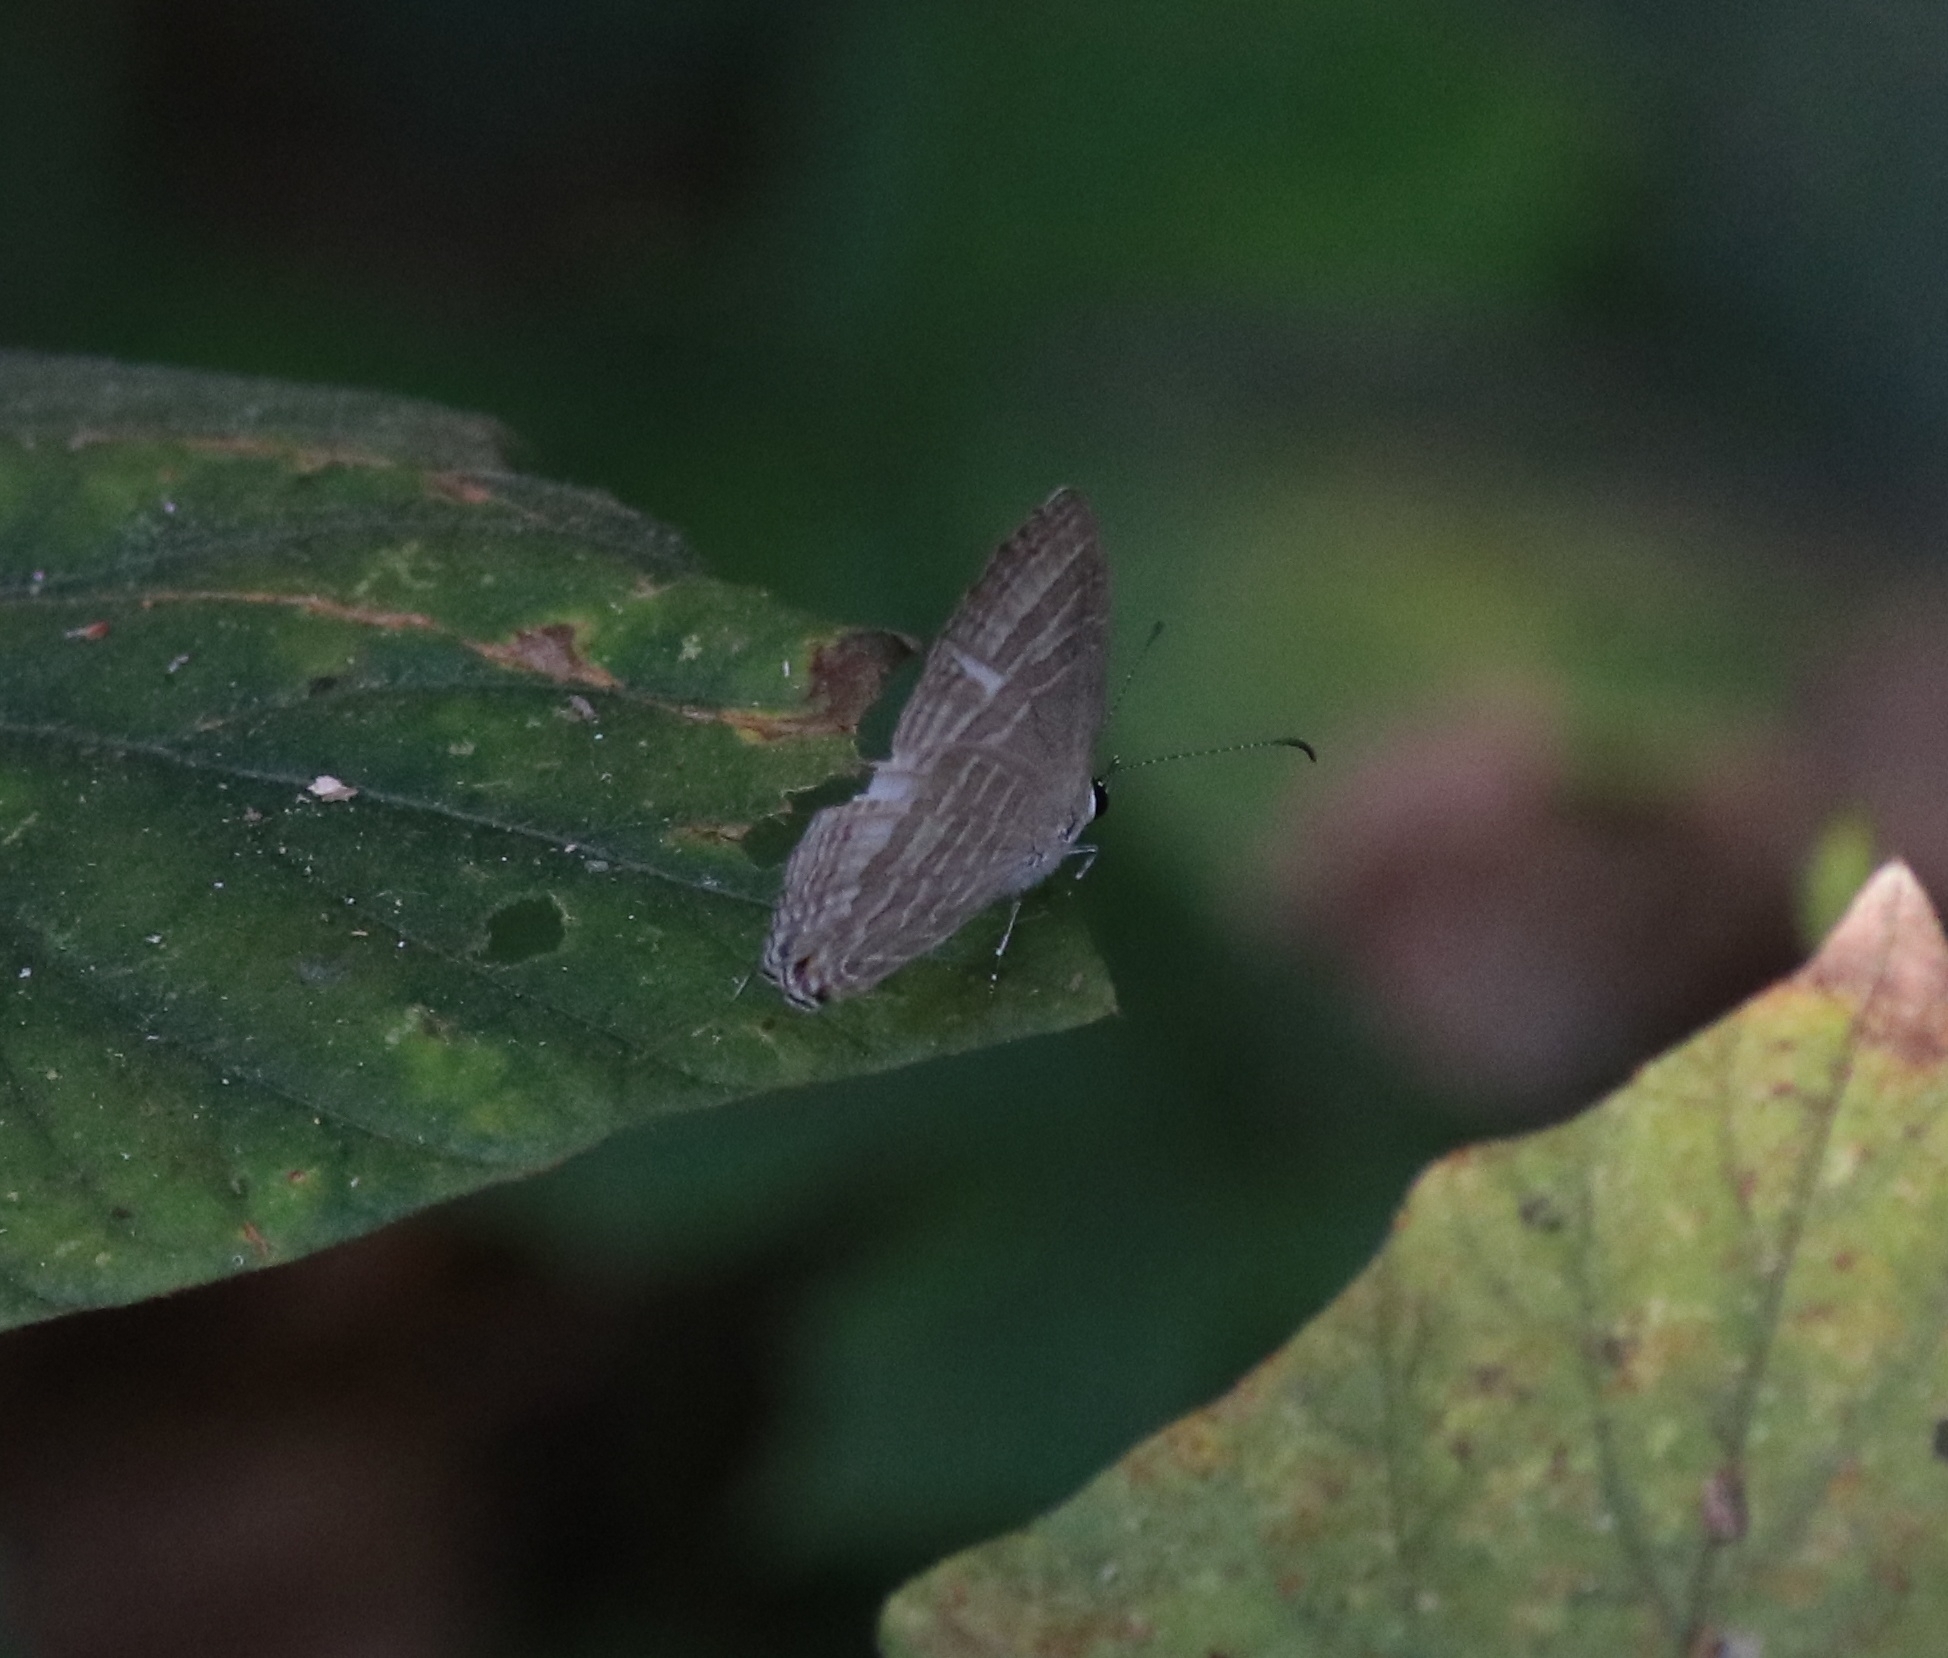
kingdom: Animalia
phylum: Arthropoda
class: Insecta
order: Lepidoptera
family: Lycaenidae
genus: Jamides
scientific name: Jamides celeno
